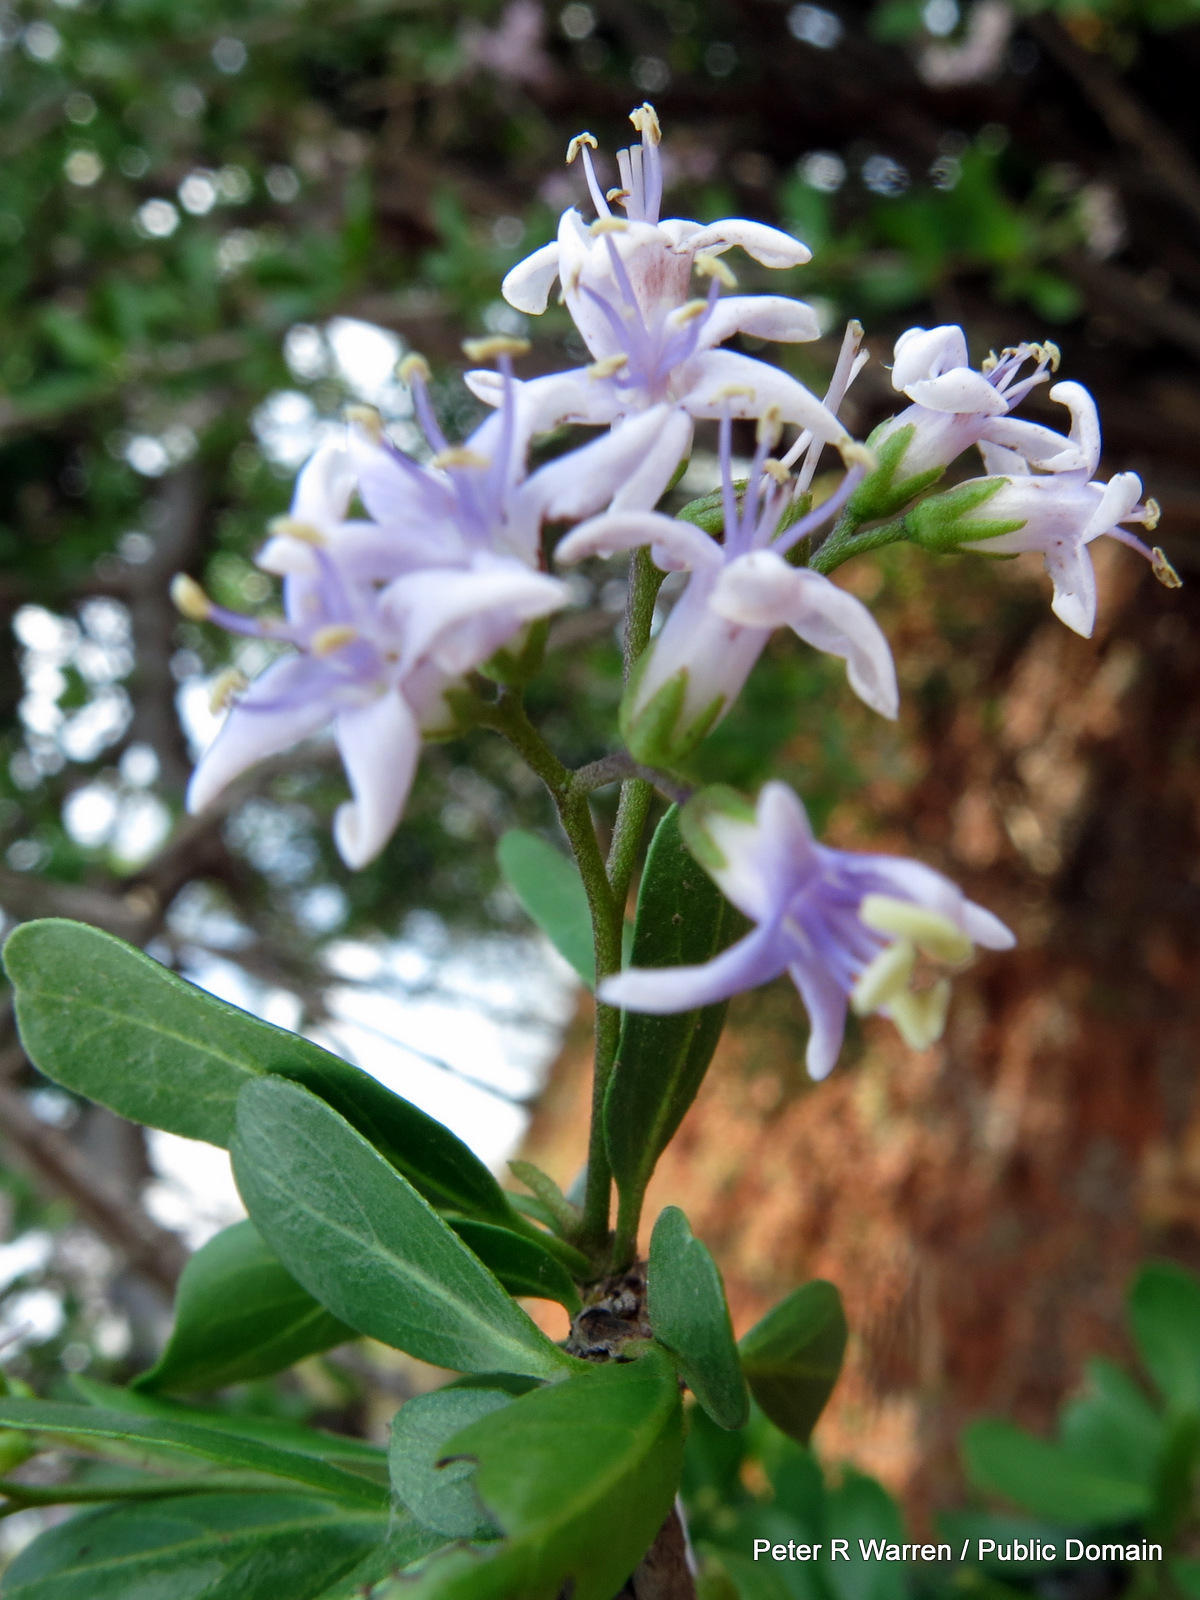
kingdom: Plantae
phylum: Tracheophyta
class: Magnoliopsida
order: Boraginales
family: Ehretiaceae
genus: Ehretia
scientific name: Ehretia rigida
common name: Cape lilac
